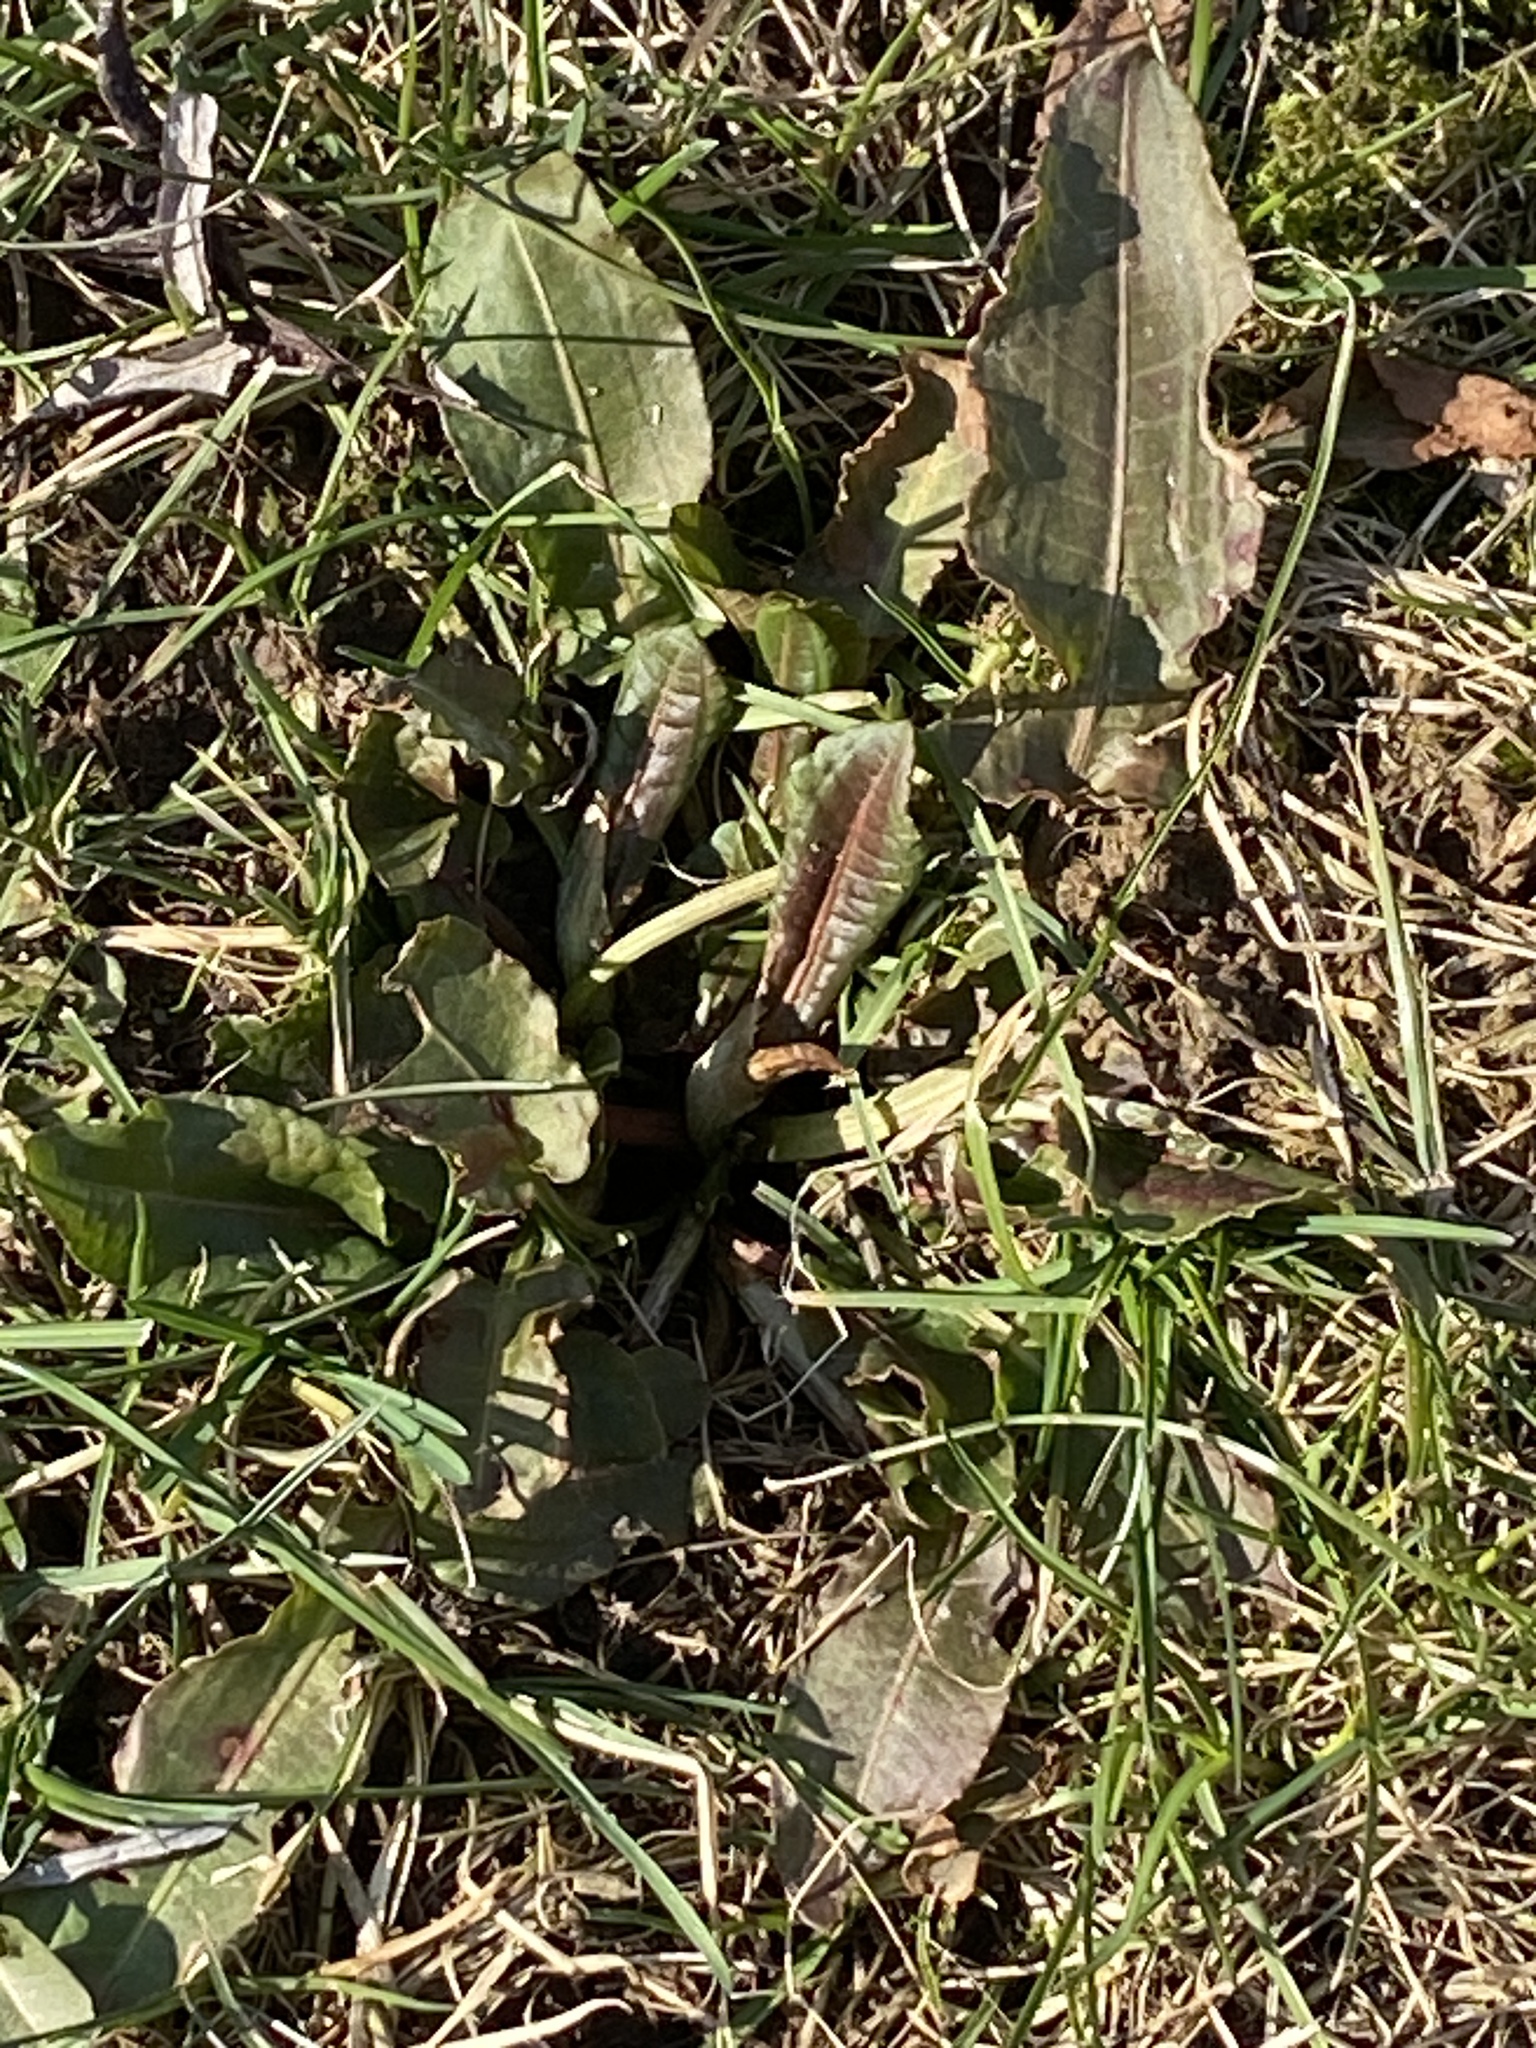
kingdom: Plantae
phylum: Tracheophyta
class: Magnoliopsida
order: Caryophyllales
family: Polygonaceae
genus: Rumex
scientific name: Rumex obtusifolius
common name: Bitter dock
